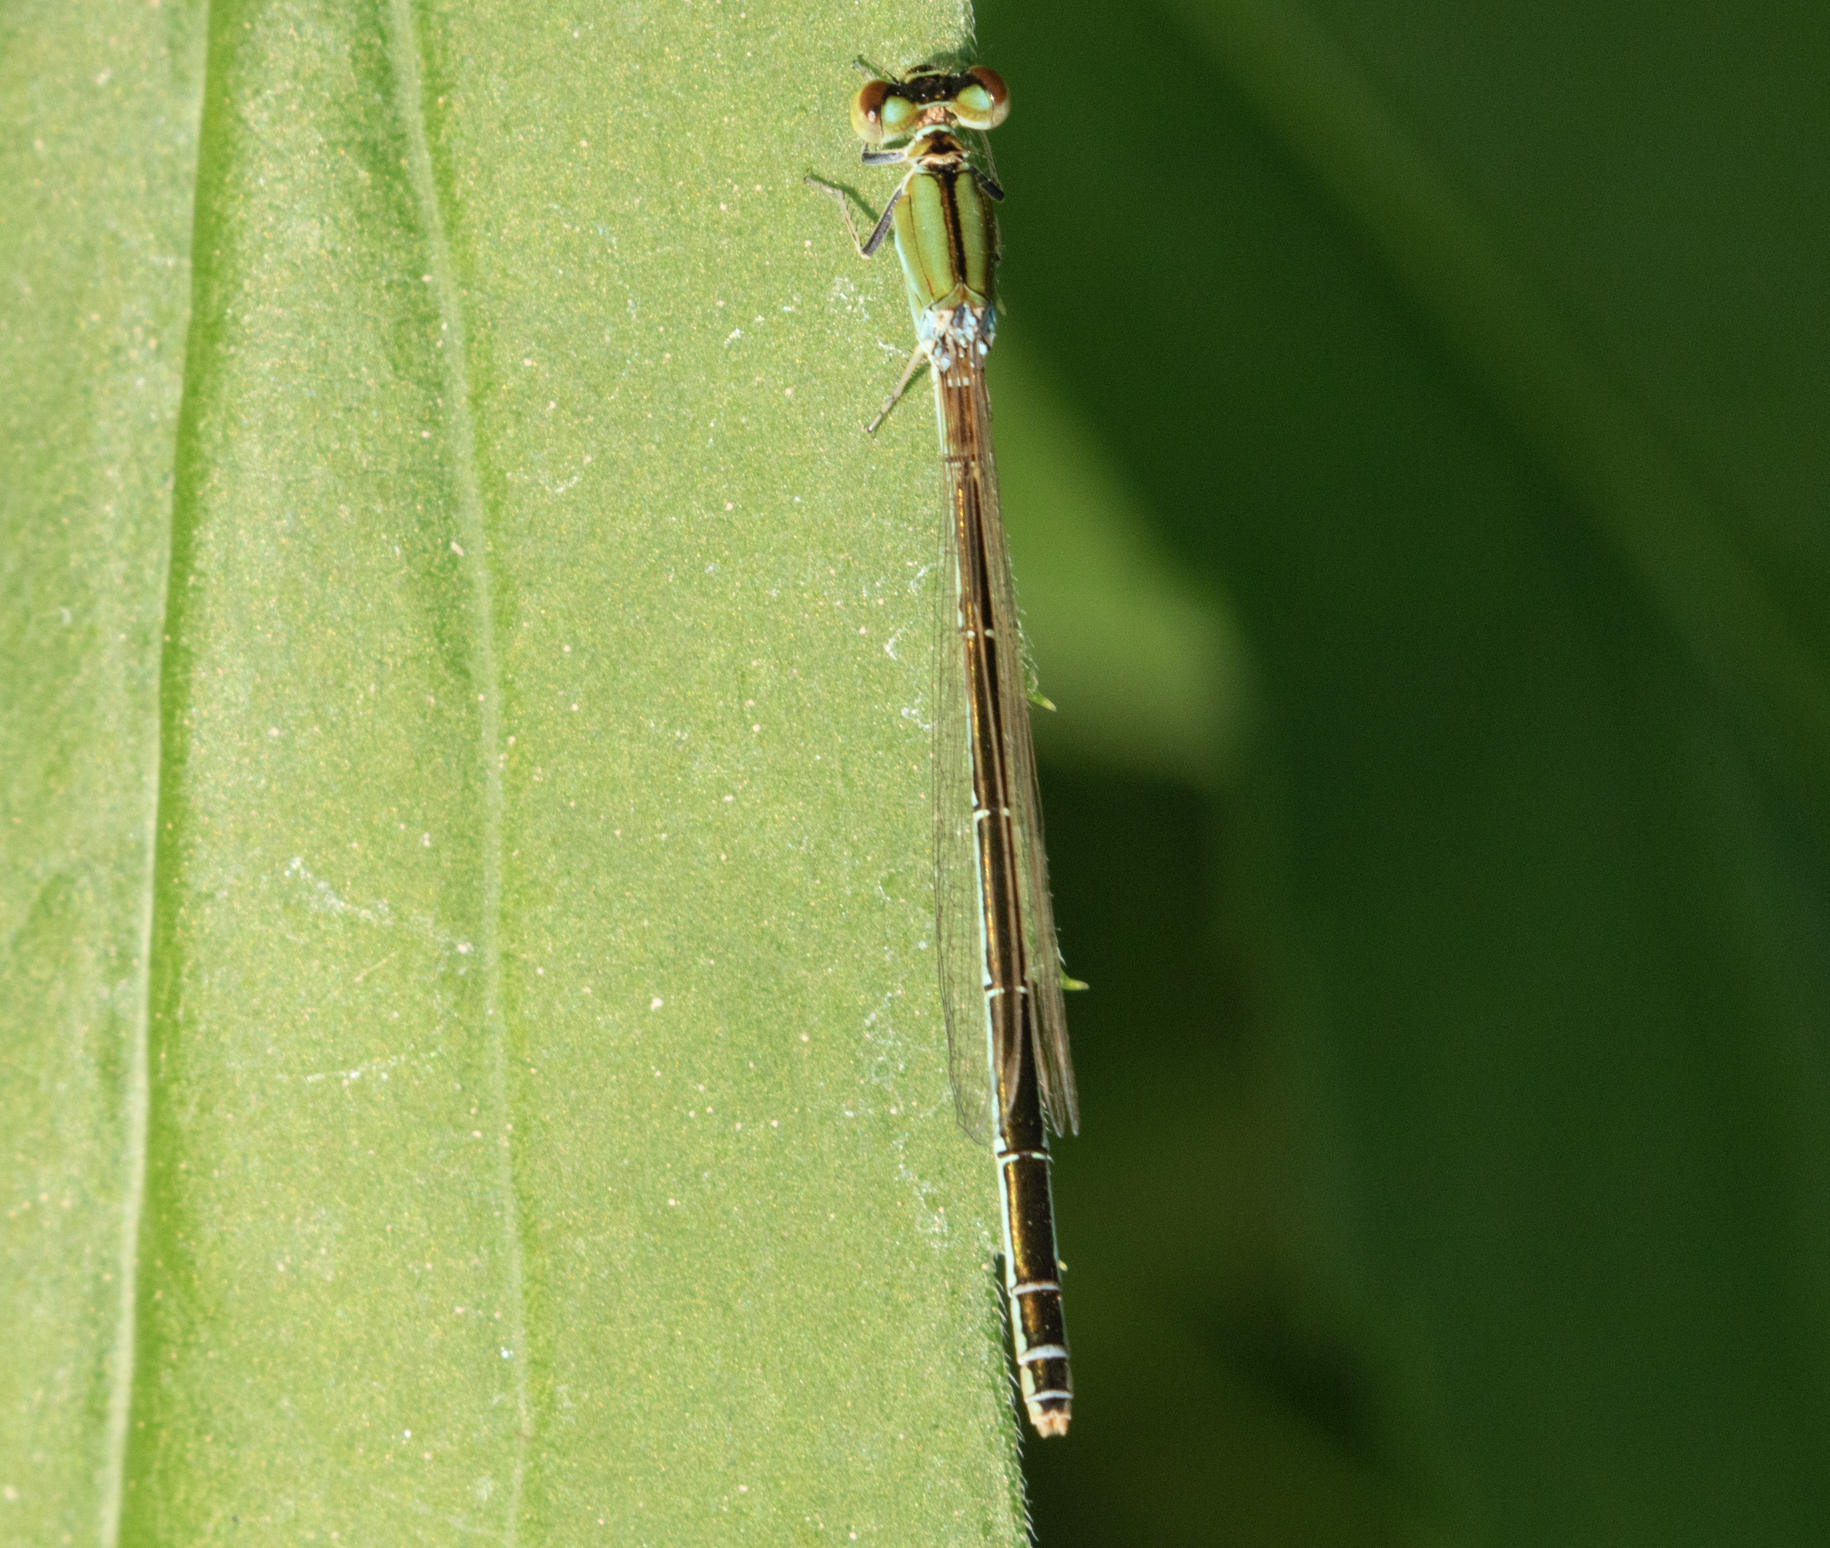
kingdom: Animalia
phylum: Arthropoda
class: Insecta
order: Odonata
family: Coenagrionidae
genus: Ischnura
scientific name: Ischnura pumilio
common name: Scarce blue-tailed damselfly
